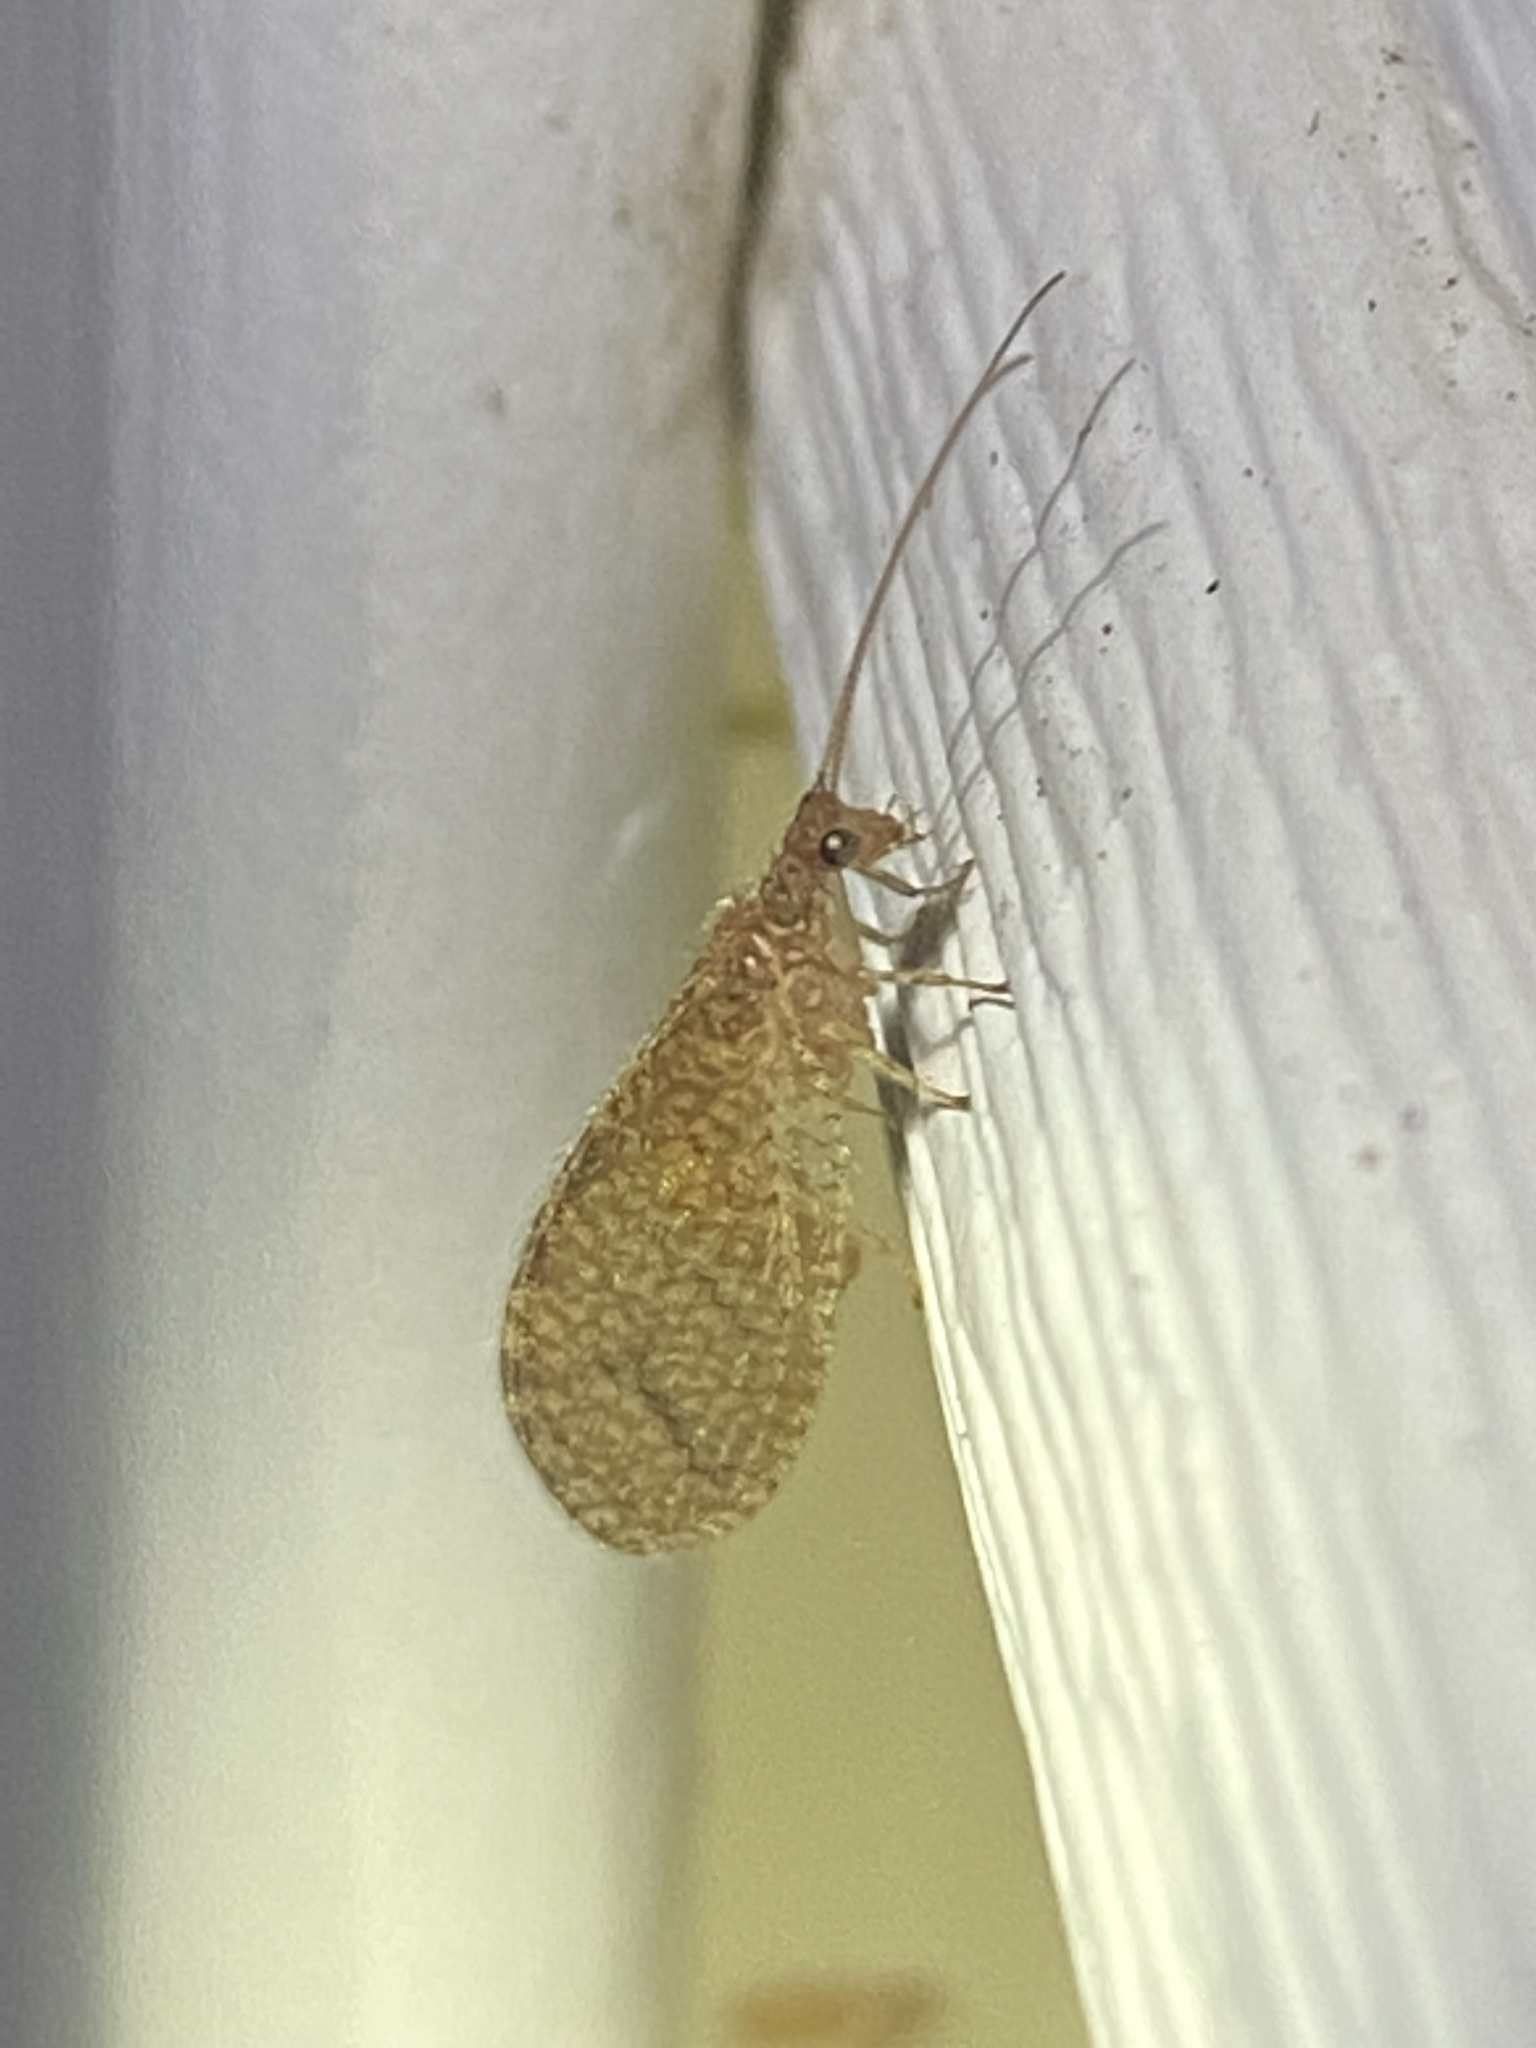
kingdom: Animalia
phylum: Arthropoda
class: Insecta
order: Neuroptera
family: Hemerobiidae
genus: Micromus
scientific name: Micromus posticus
